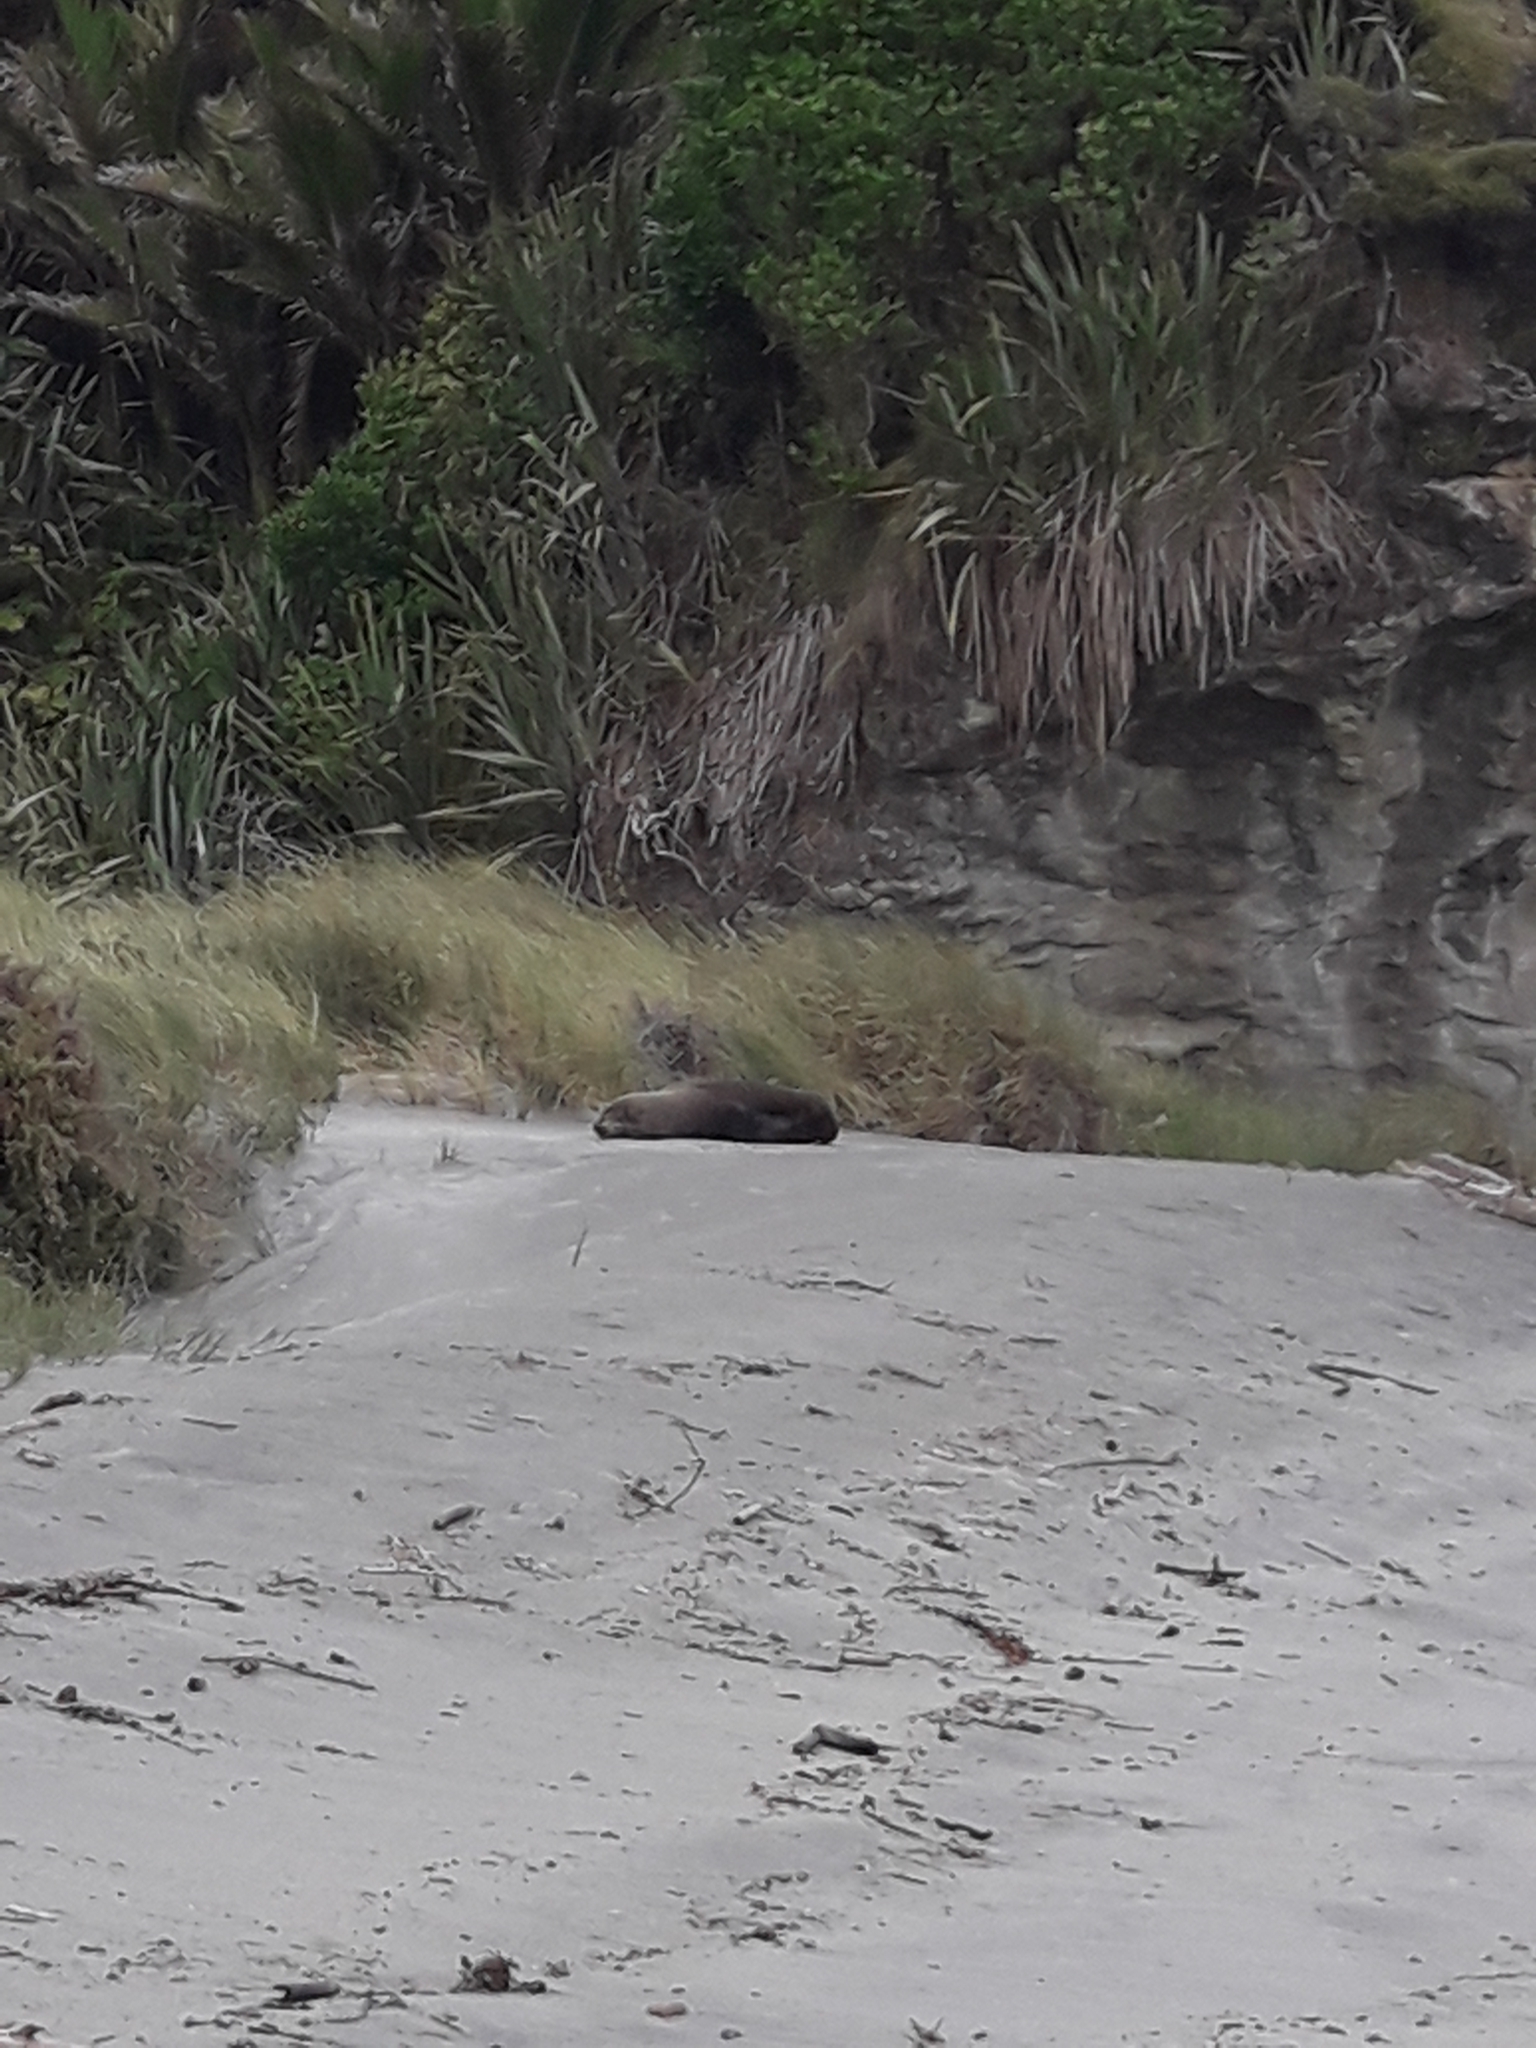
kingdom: Animalia
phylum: Chordata
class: Mammalia
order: Carnivora
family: Otariidae
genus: Arctocephalus
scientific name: Arctocephalus forsteri
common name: New zealand fur seal
